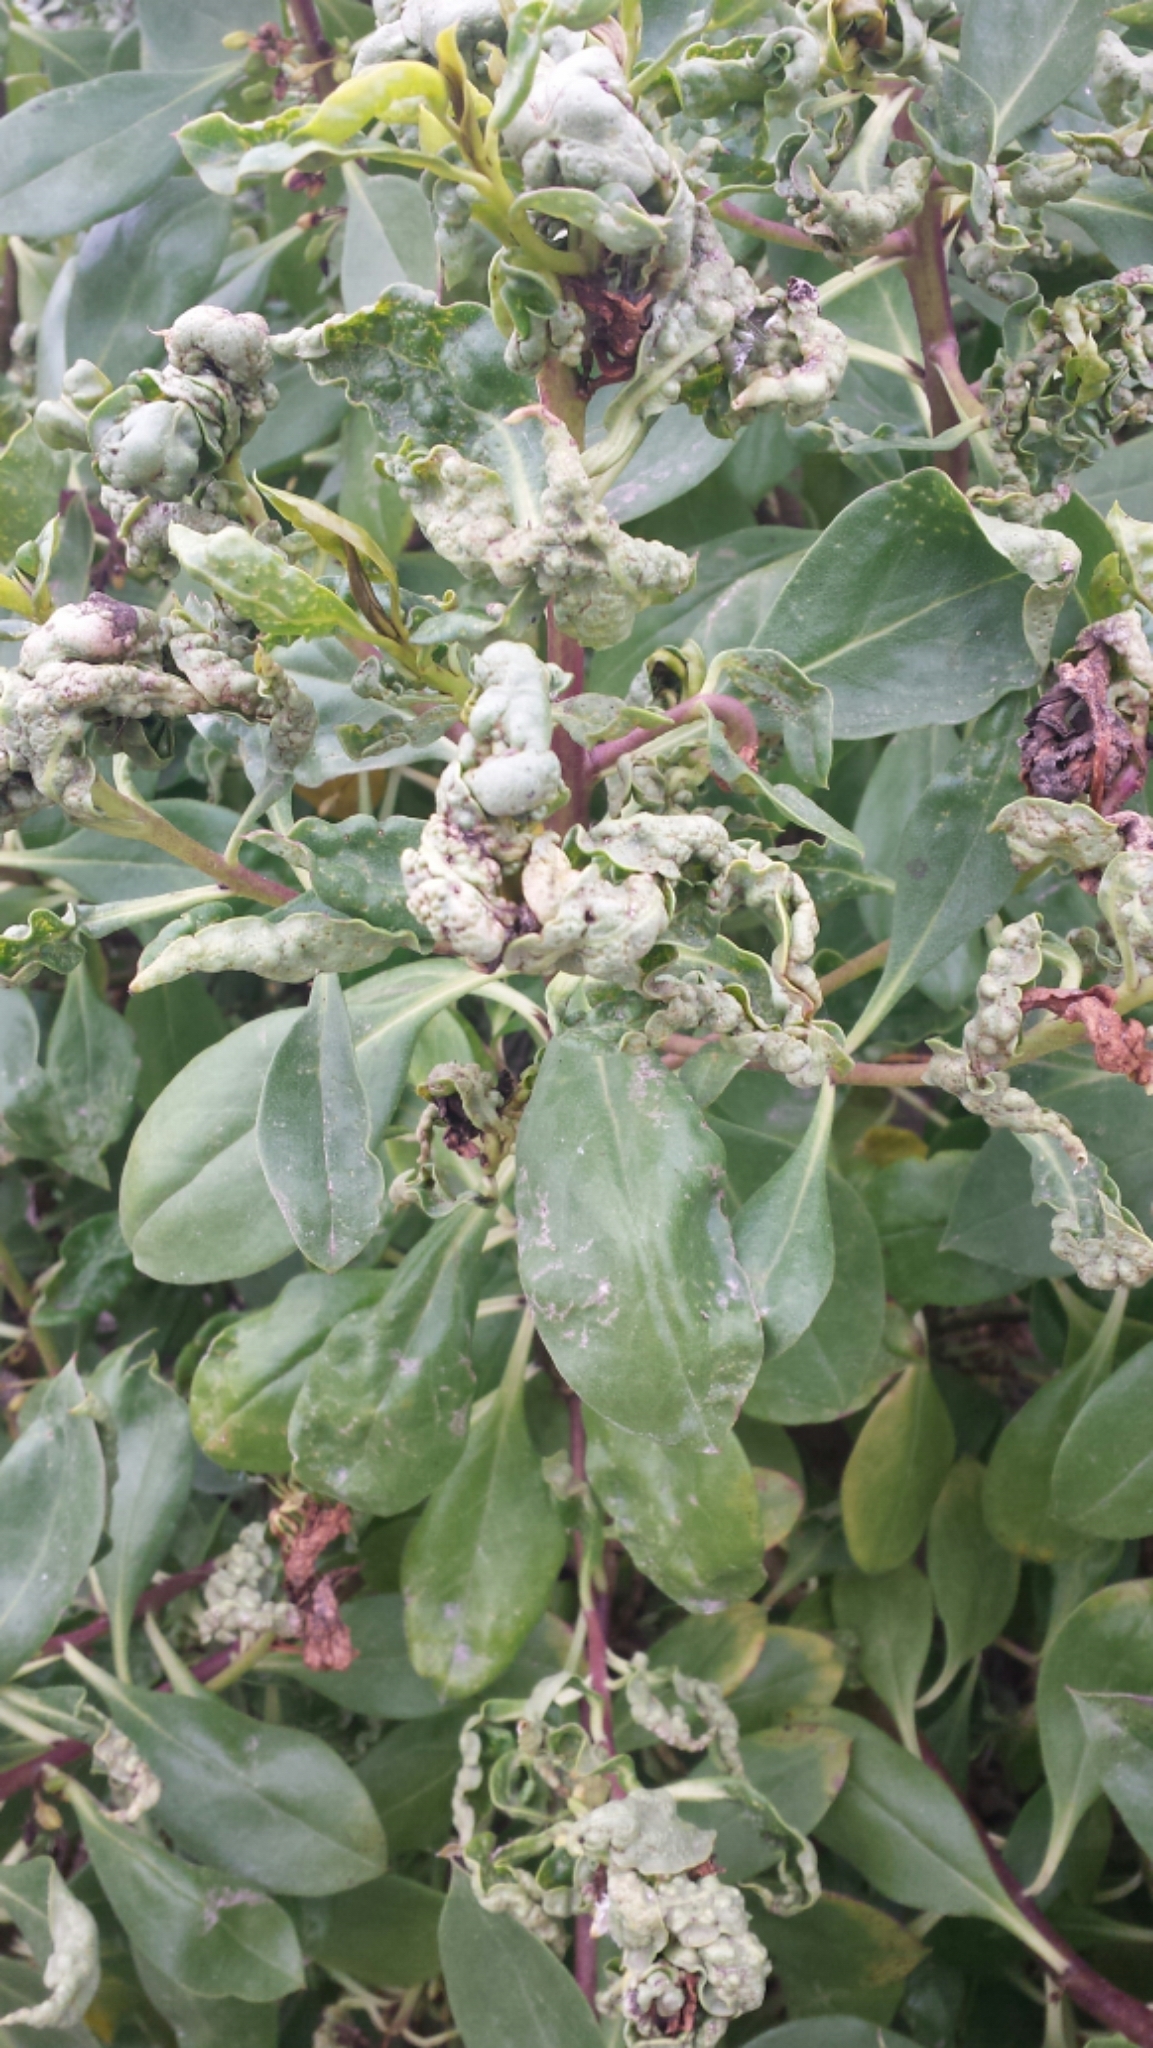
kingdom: Plantae
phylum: Tracheophyta
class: Magnoliopsida
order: Lamiales
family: Scrophulariaceae
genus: Myoporum
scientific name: Myoporum laetum
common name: Ngaio tree
